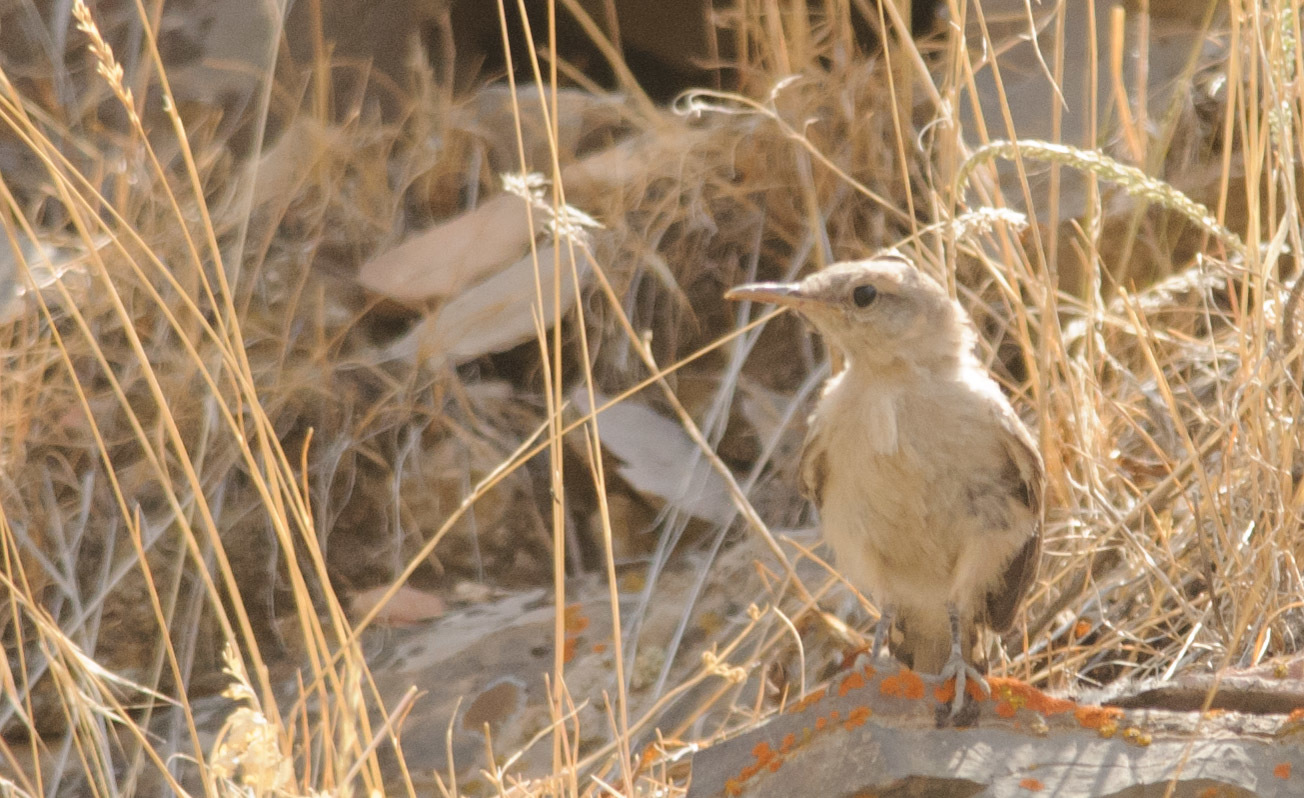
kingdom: Animalia
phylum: Chordata
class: Aves
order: Passeriformes
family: Troglodytidae
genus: Salpinctes
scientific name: Salpinctes obsoletus
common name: Rock wren
